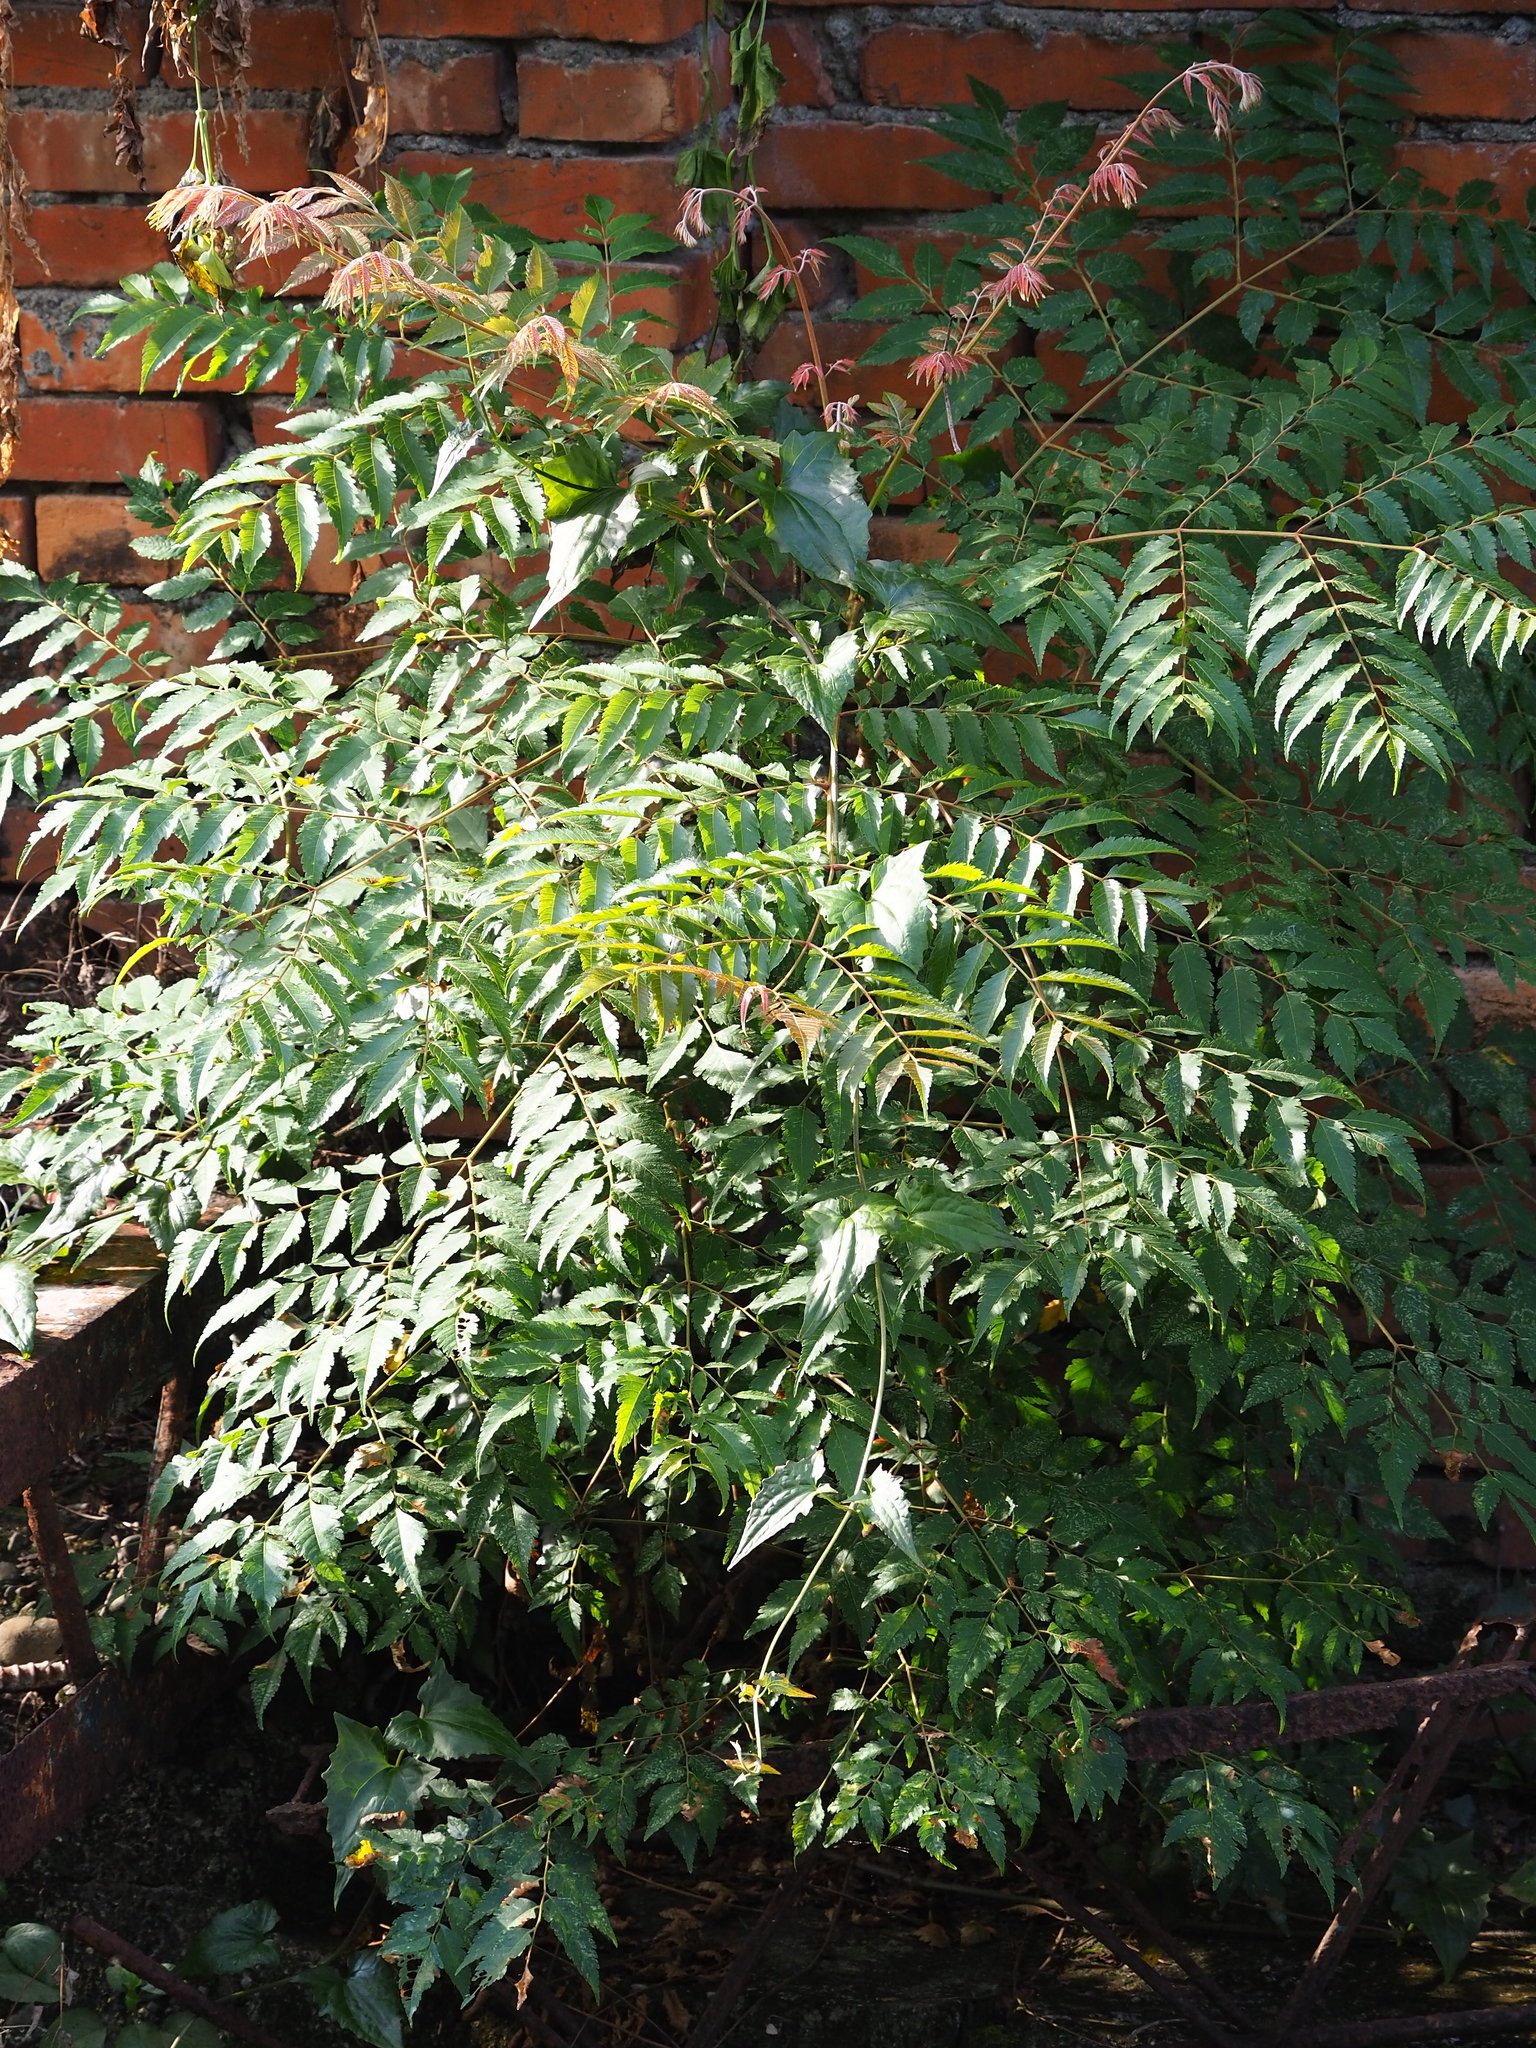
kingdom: Plantae
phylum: Tracheophyta
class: Magnoliopsida
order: Sapindales
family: Sapindaceae
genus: Koelreuteria
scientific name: Koelreuteria elegans
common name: Chinese flame tree
